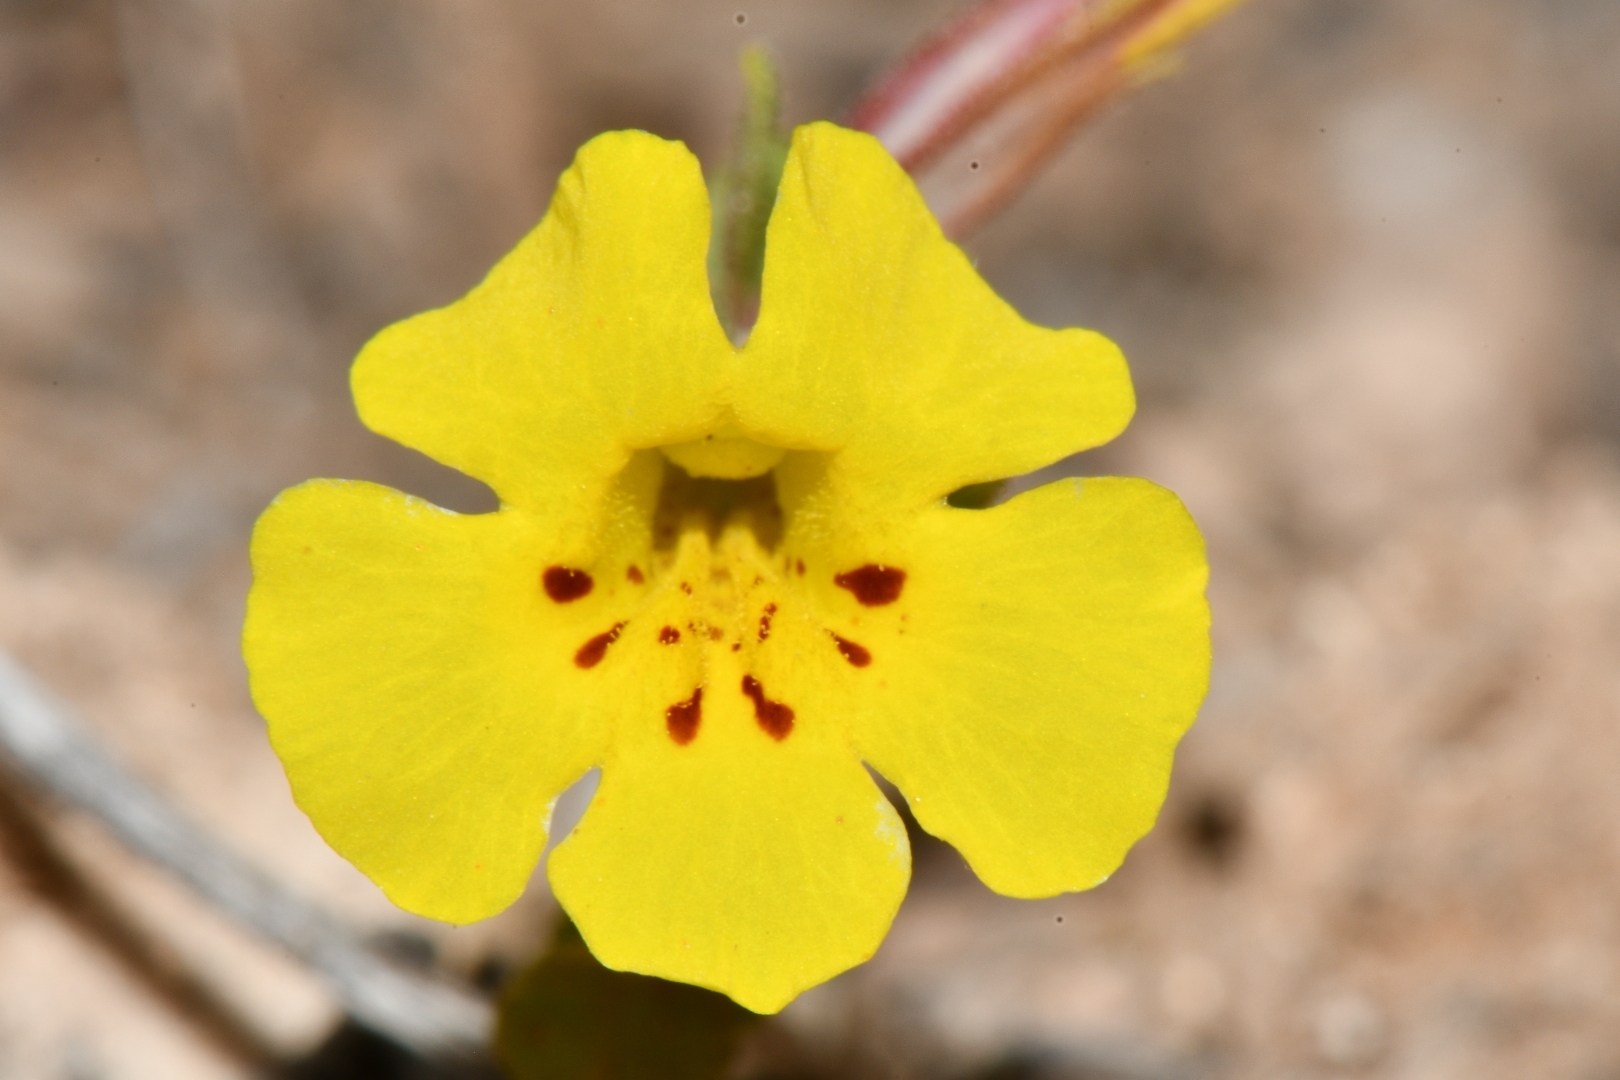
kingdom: Plantae
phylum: Tracheophyta
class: Magnoliopsida
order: Lamiales
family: Phrymaceae
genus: Diplacus
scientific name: Diplacus parryi
